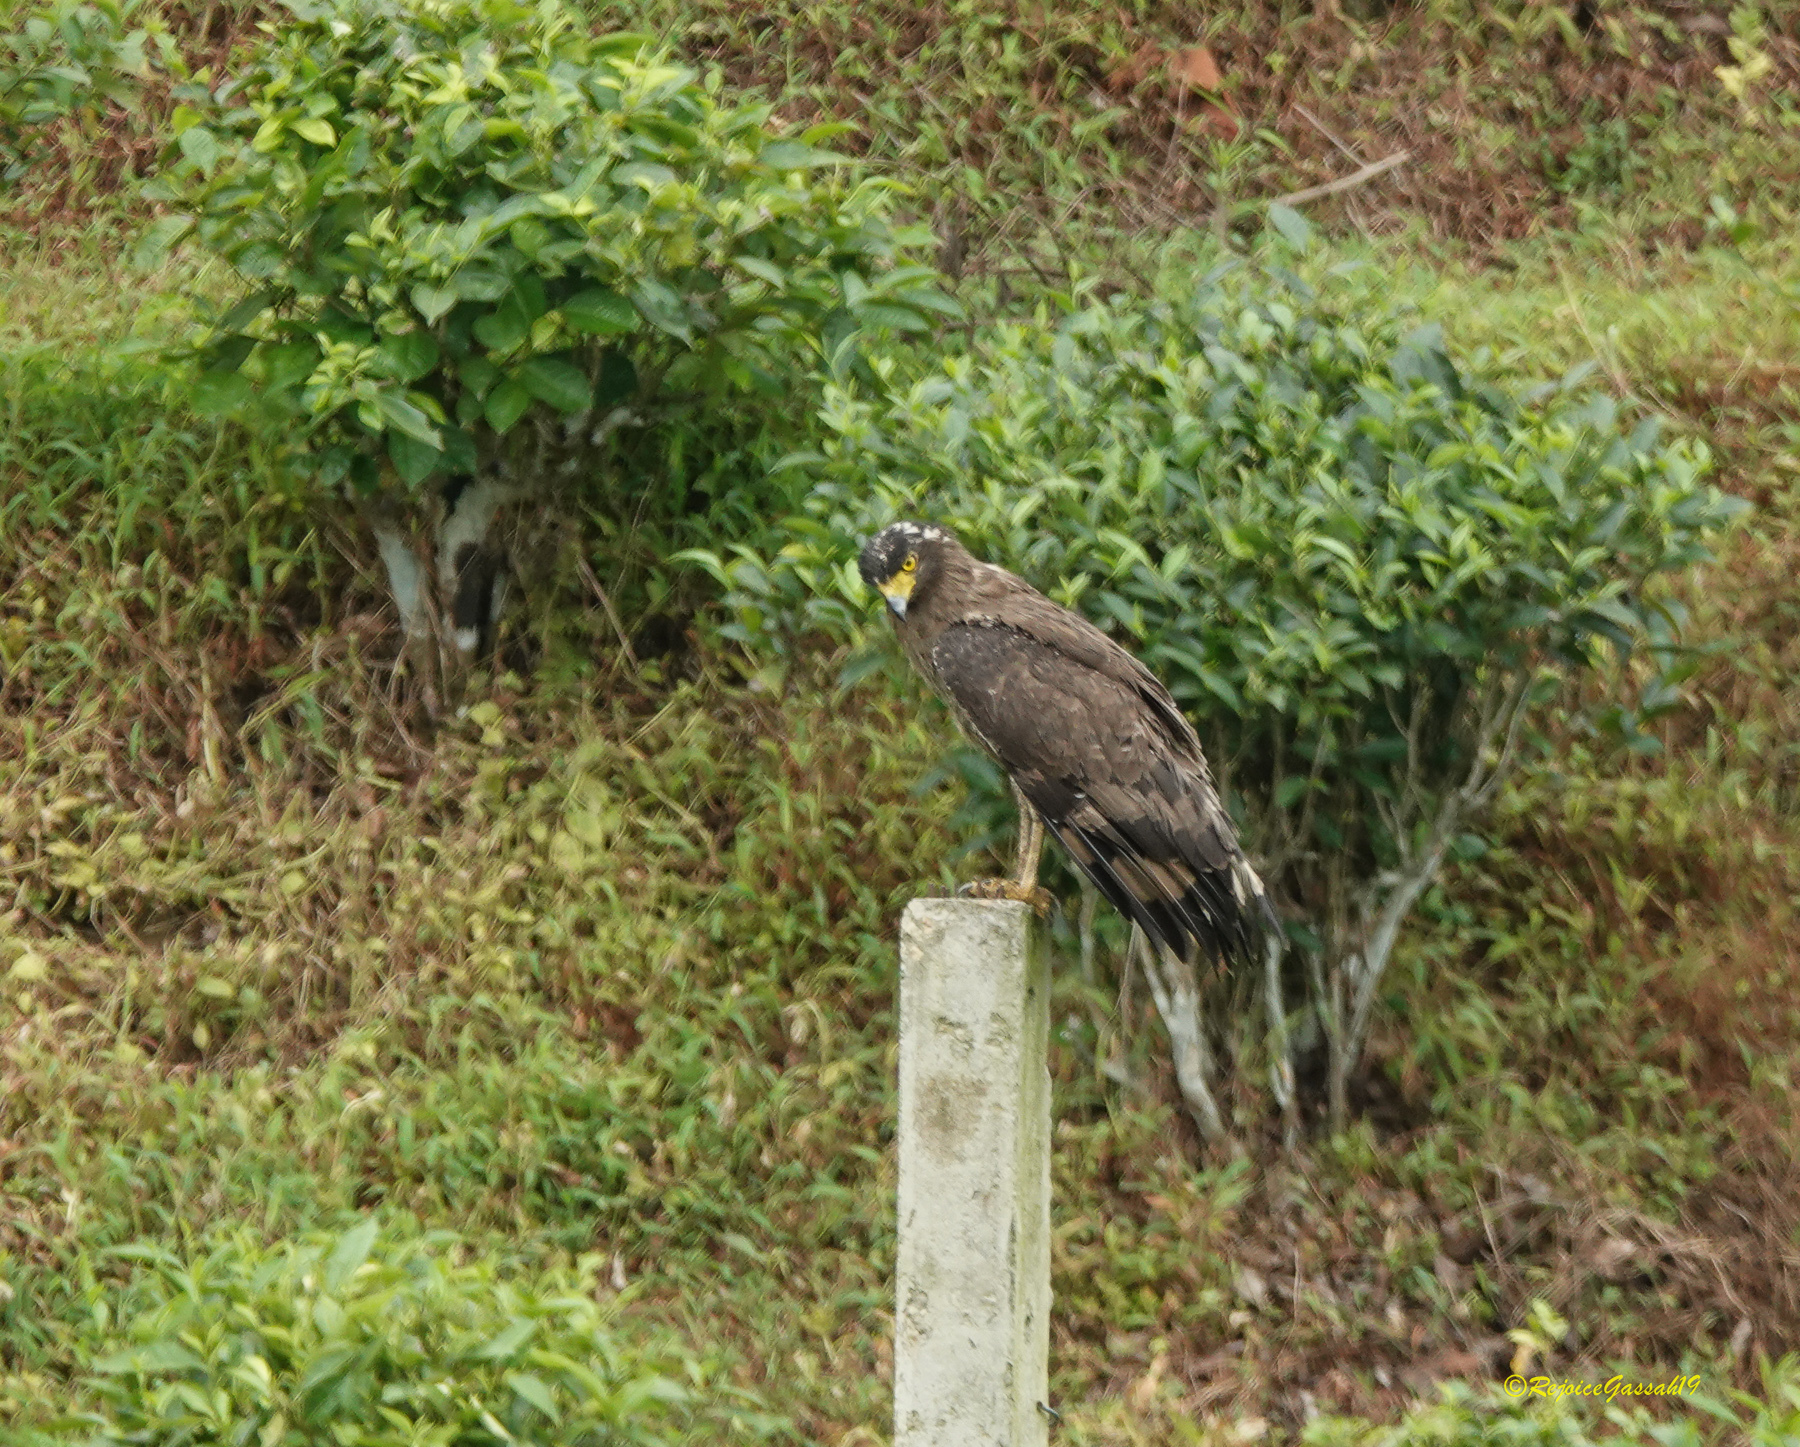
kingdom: Animalia
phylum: Chordata
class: Aves
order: Accipitriformes
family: Accipitridae
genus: Spilornis
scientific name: Spilornis cheela
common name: Crested serpent eagle
